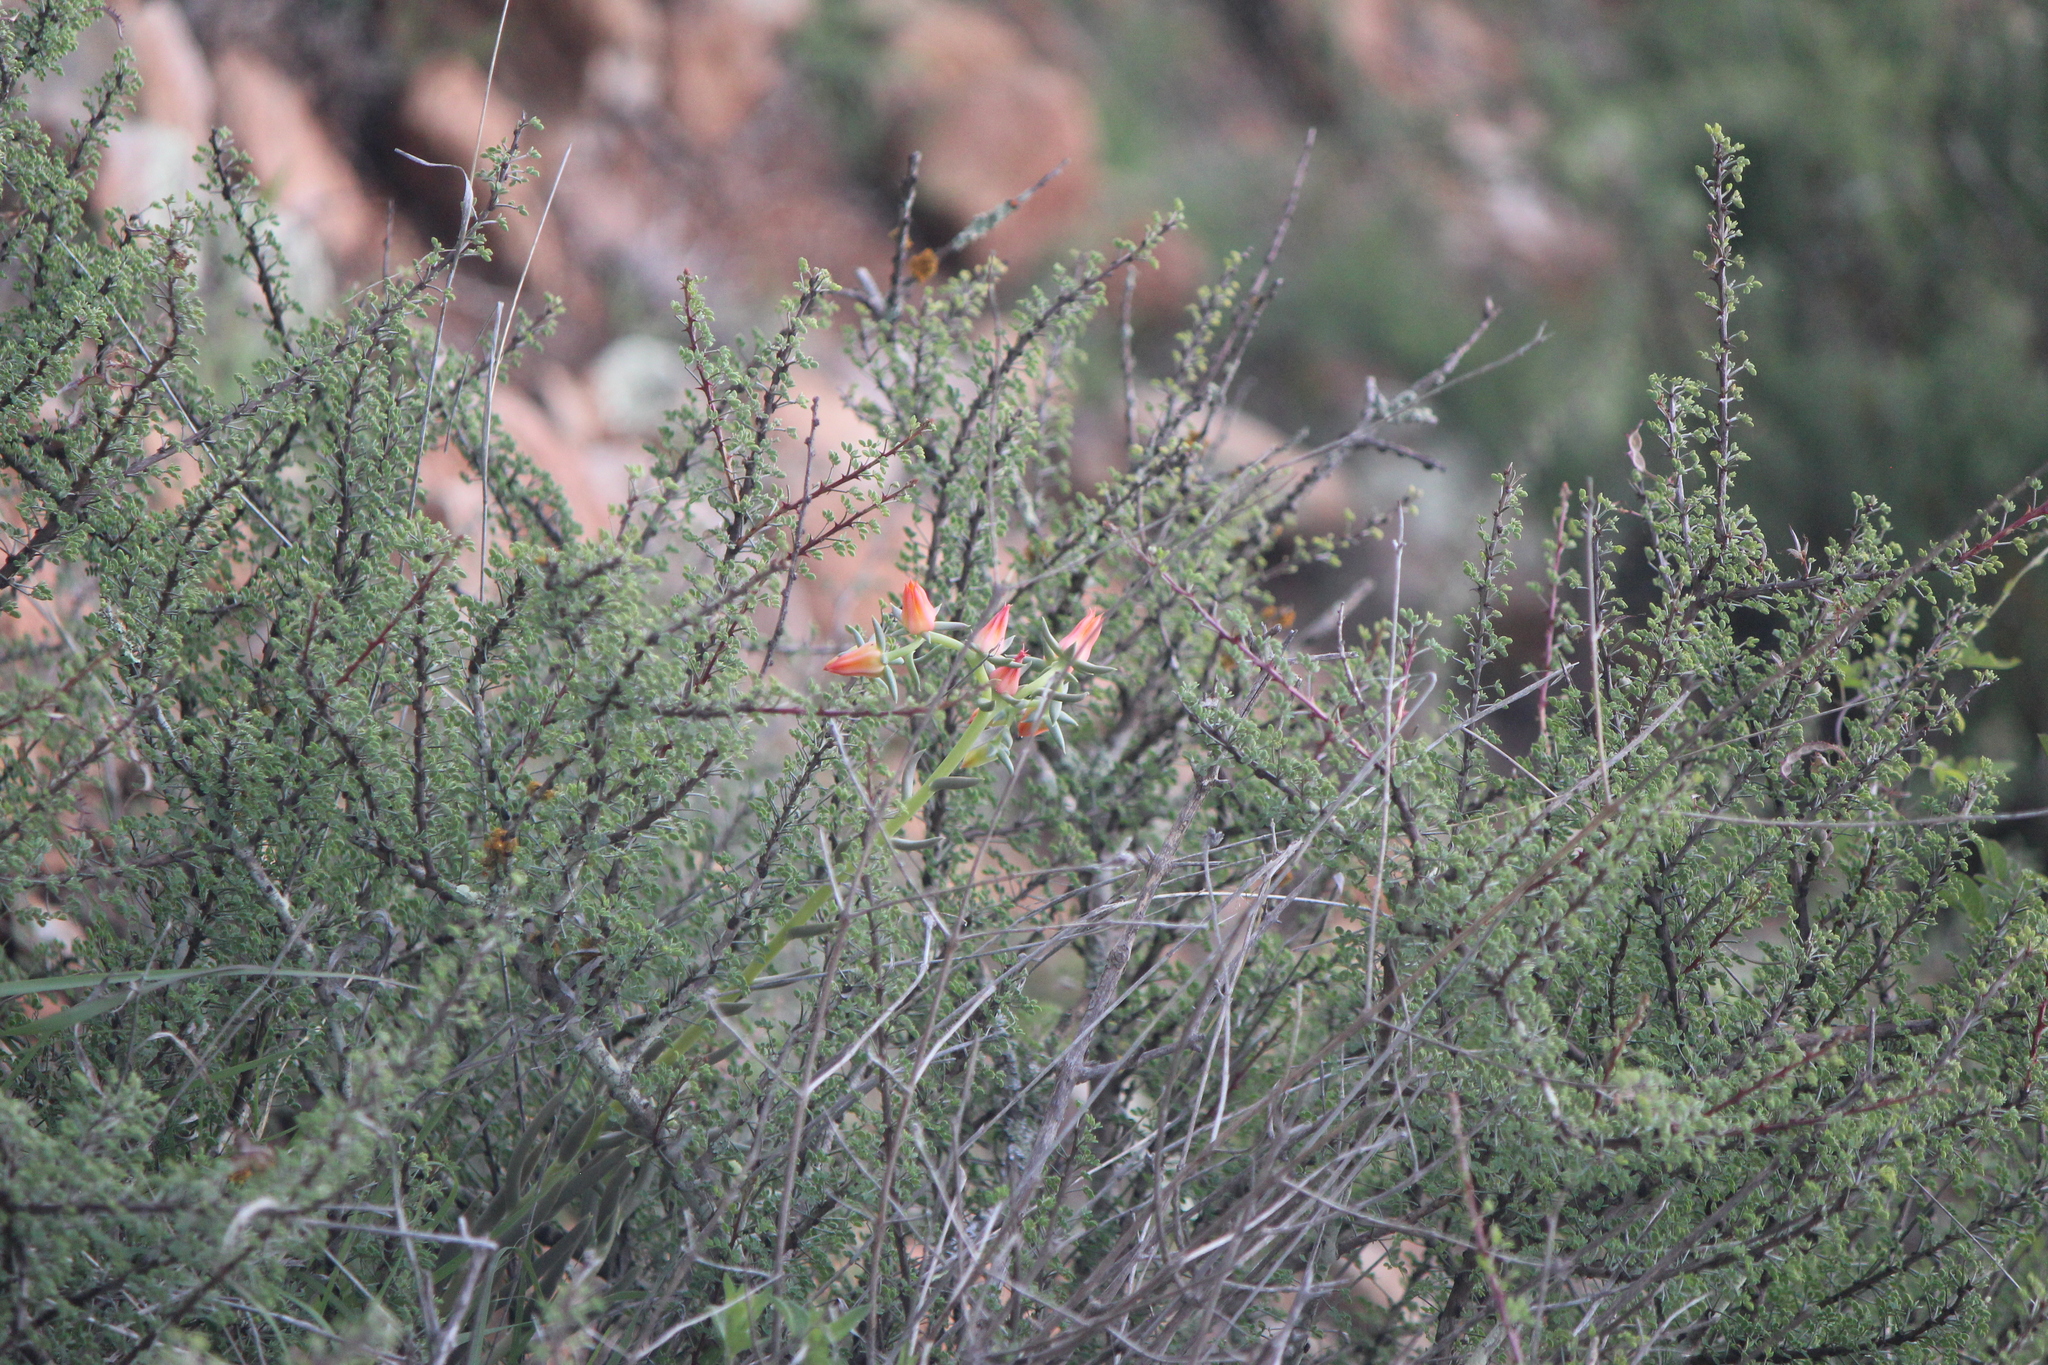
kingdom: Plantae
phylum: Tracheophyta
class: Magnoliopsida
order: Saxifragales
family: Crassulaceae
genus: Echeveria
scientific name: Echeveria bifida
